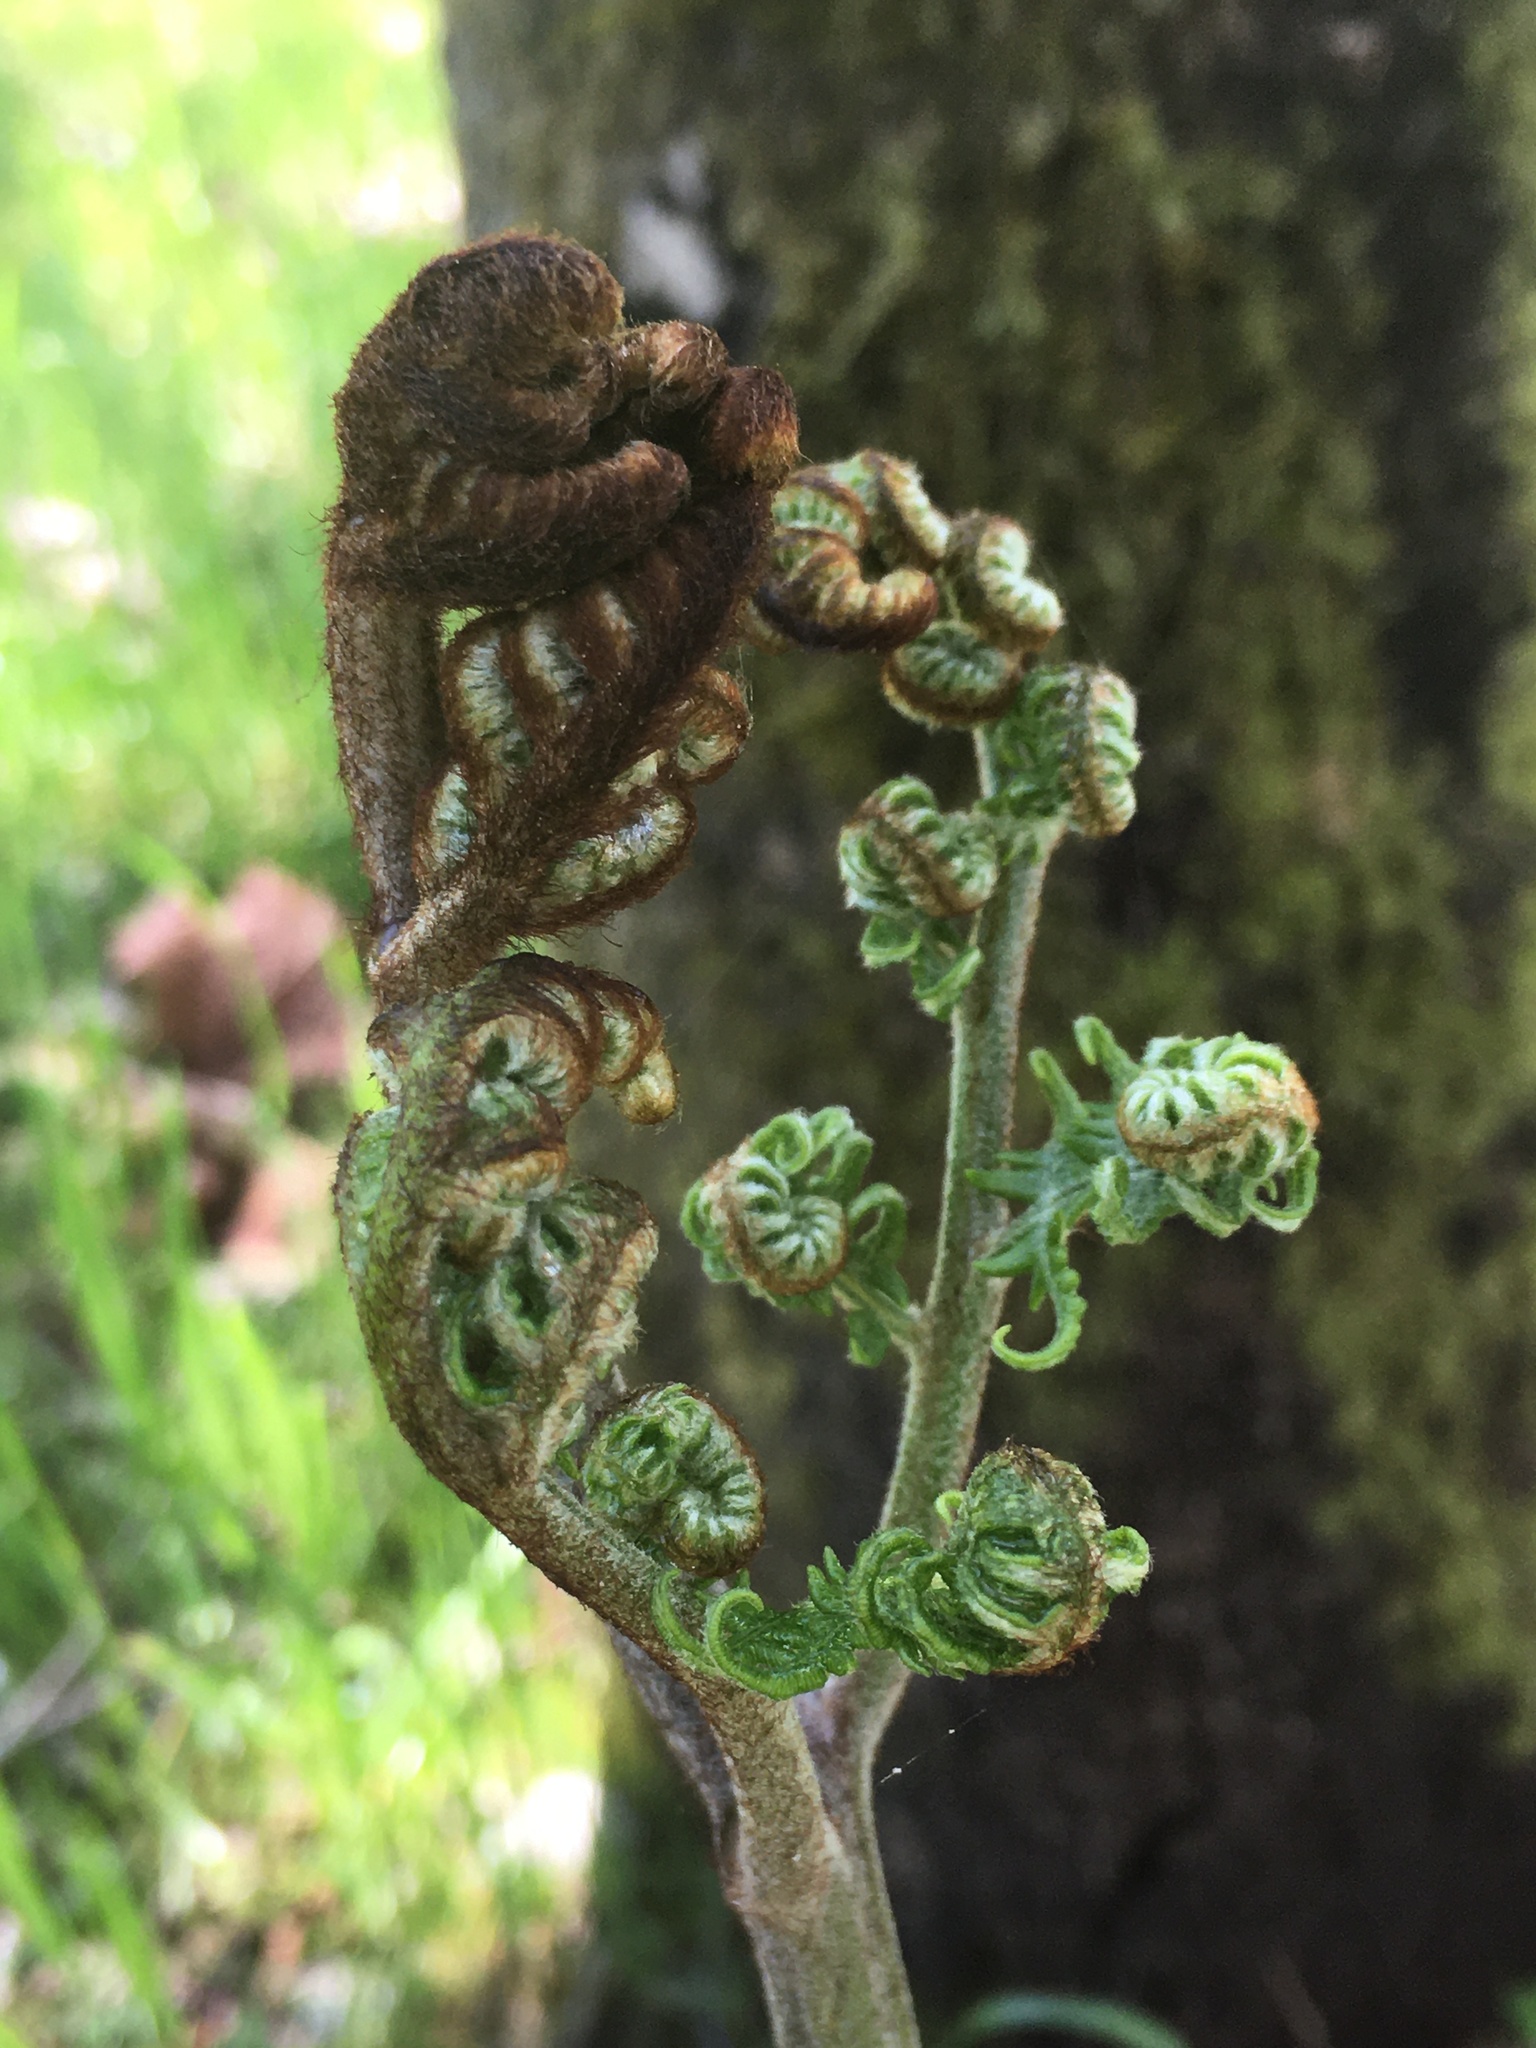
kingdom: Plantae
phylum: Tracheophyta
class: Polypodiopsida
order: Polypodiales
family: Dennstaedtiaceae
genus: Pteridium
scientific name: Pteridium aquilinum
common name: Bracken
